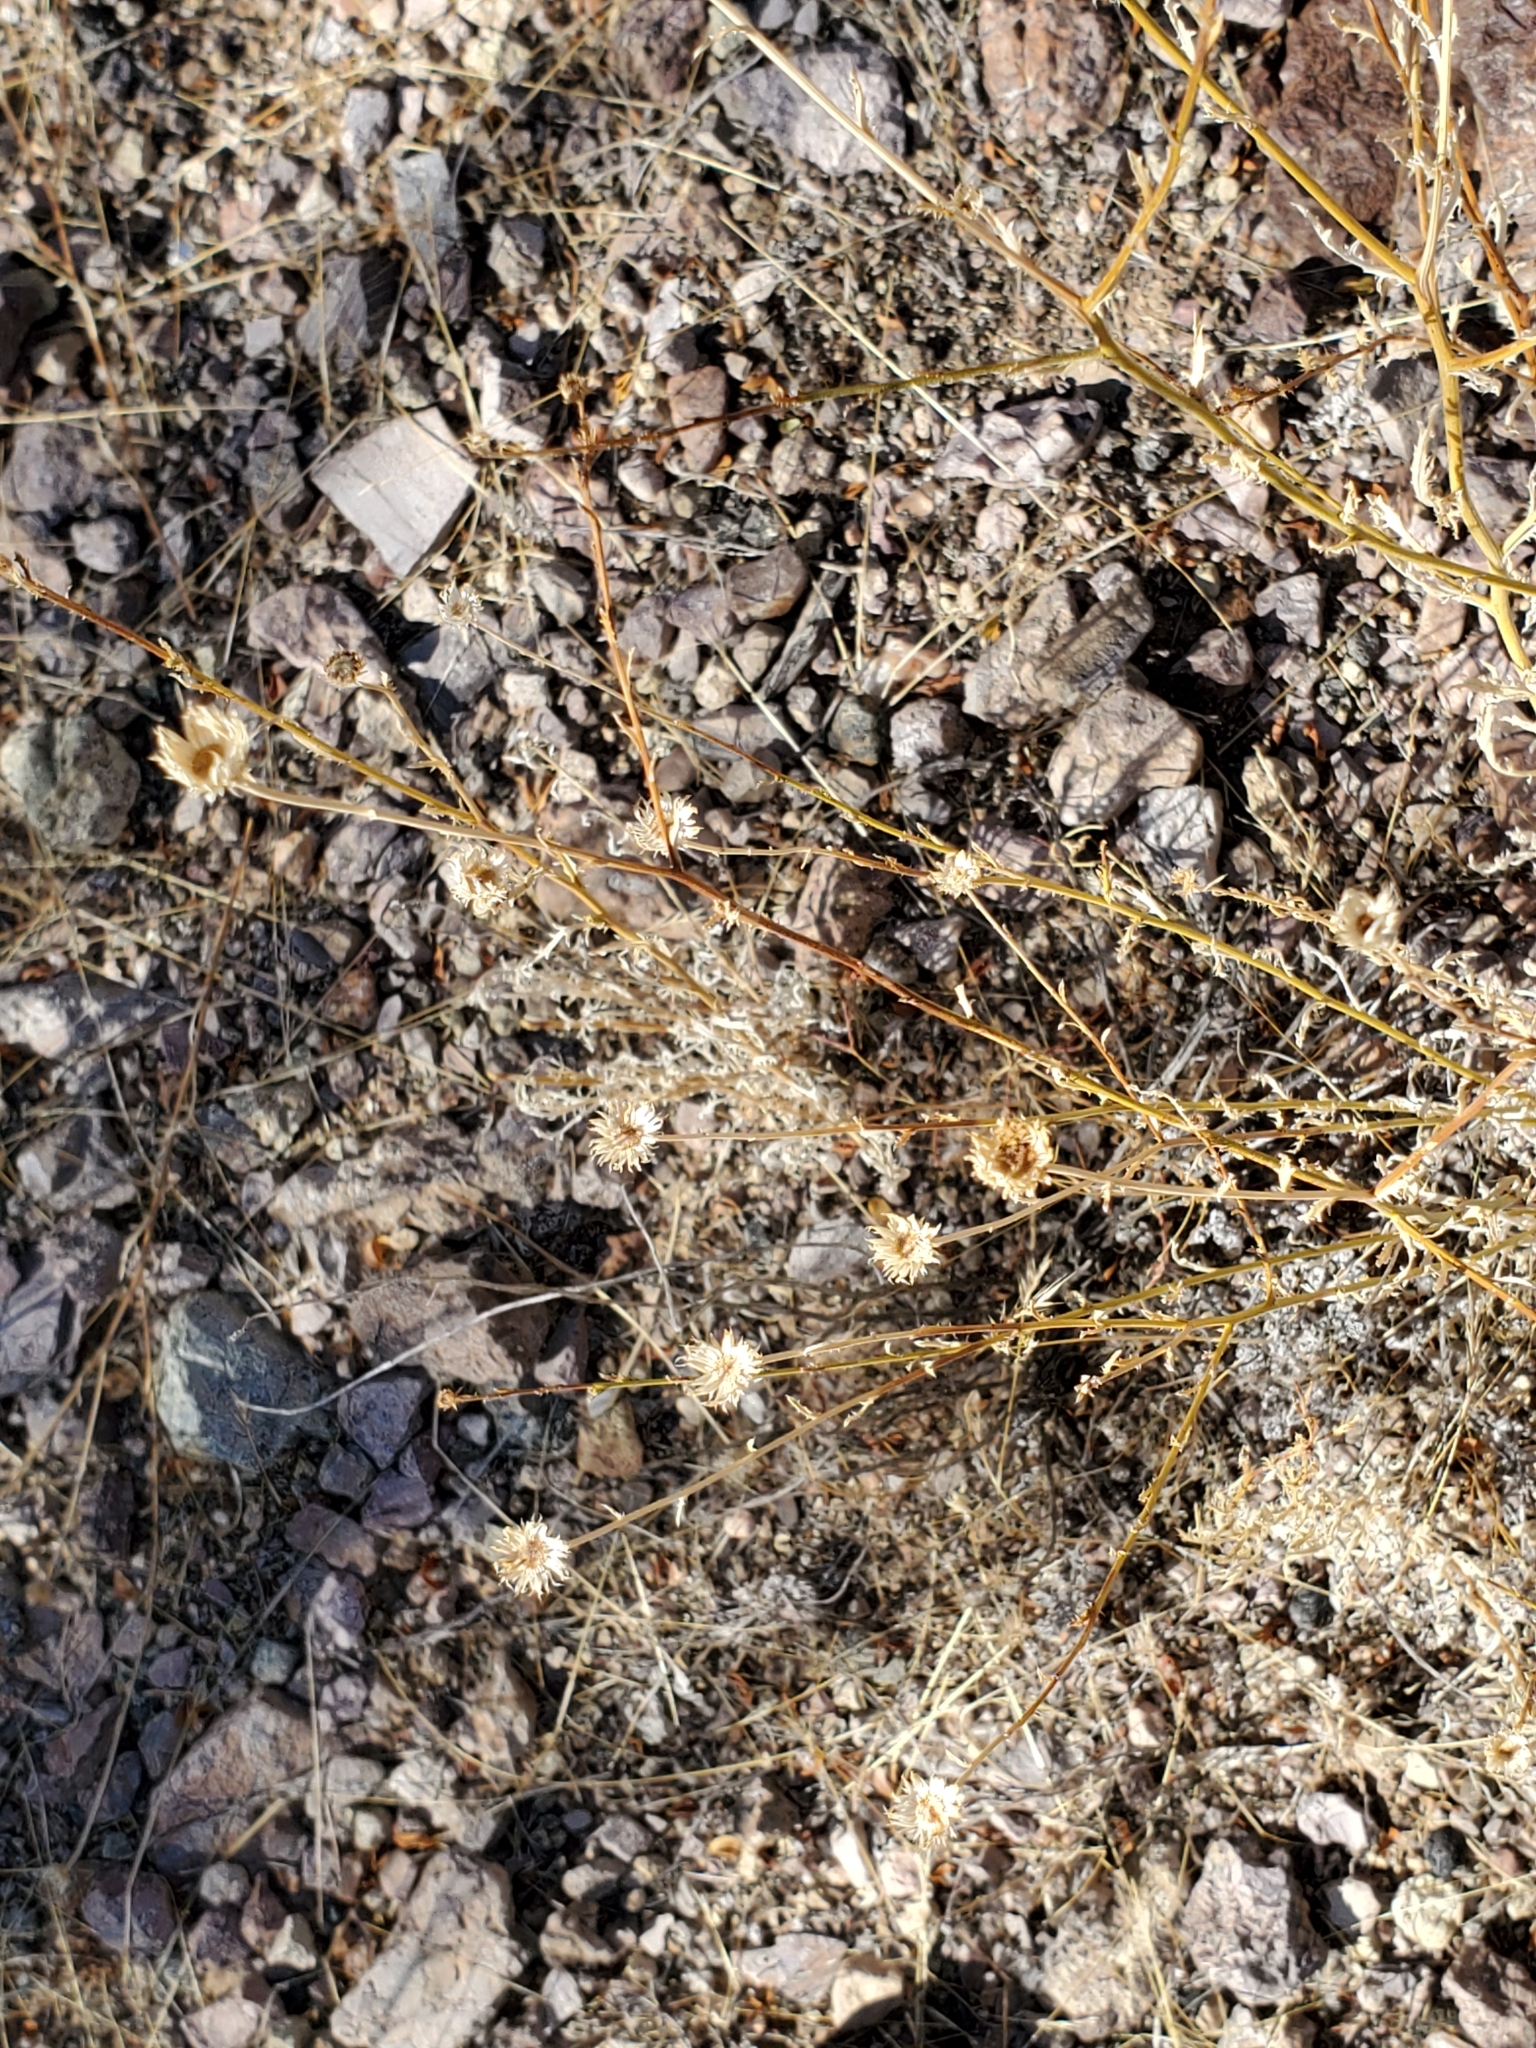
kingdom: Plantae
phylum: Tracheophyta
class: Magnoliopsida
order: Asterales
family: Asteraceae
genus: Xanthisma
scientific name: Xanthisma spinulosum
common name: Spiny goldenweed
